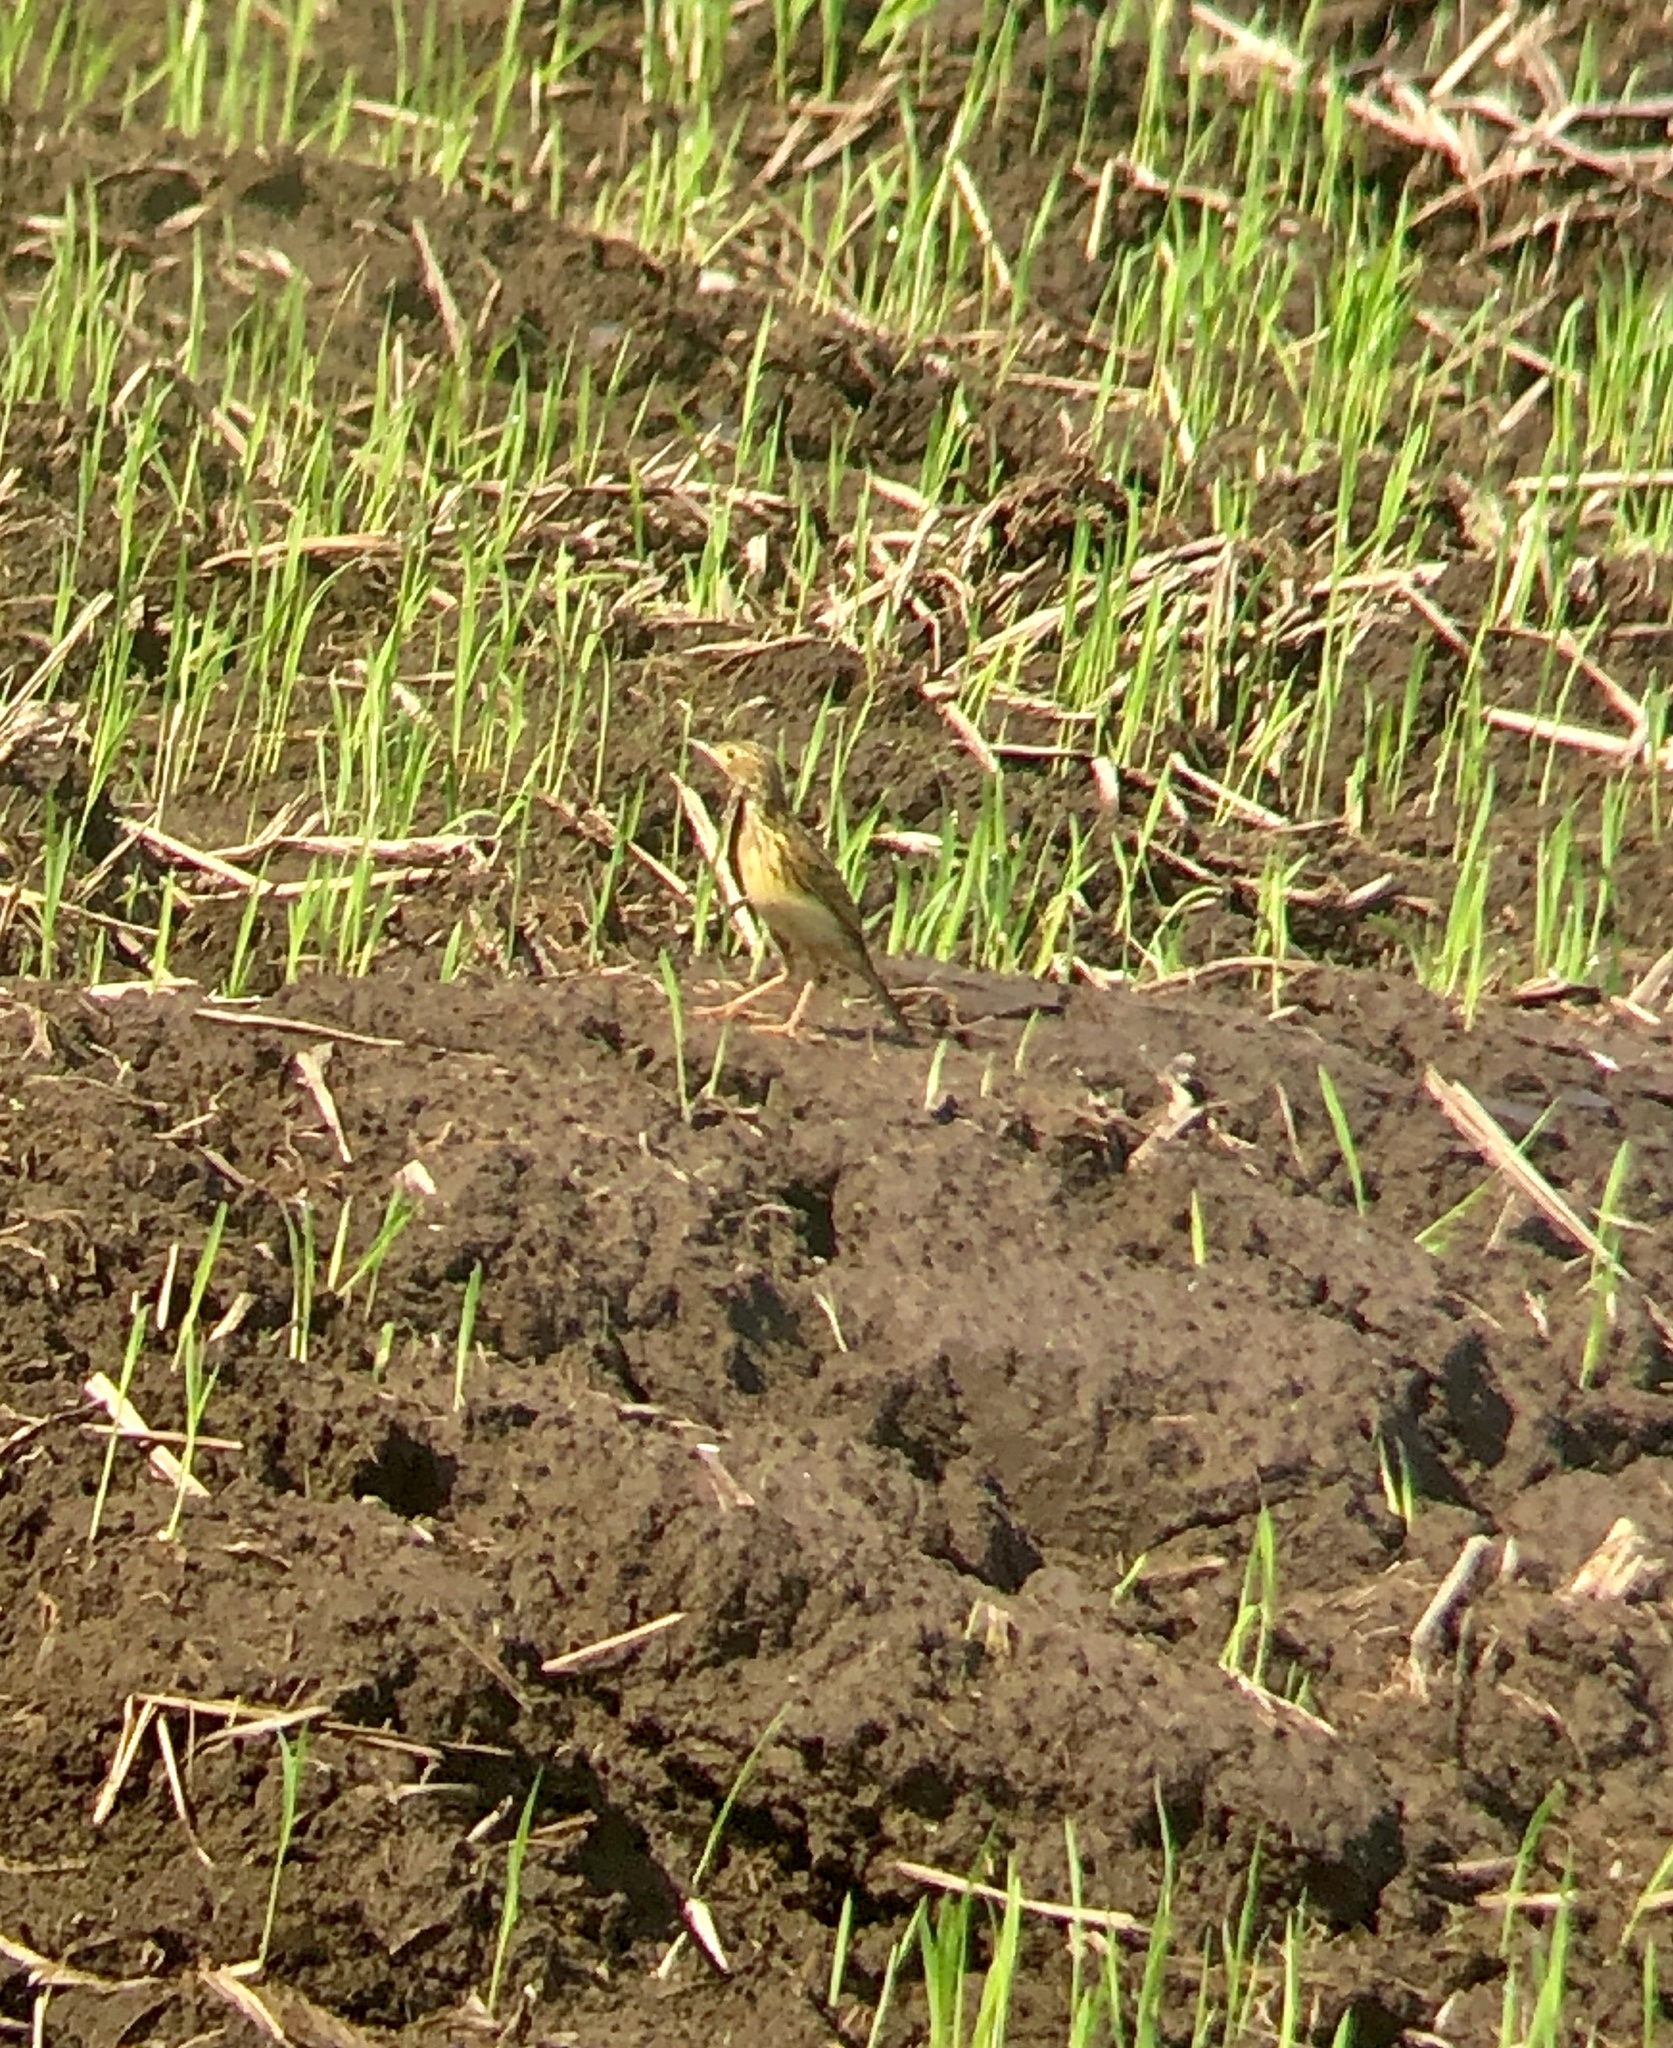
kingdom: Animalia
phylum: Chordata
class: Aves
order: Passeriformes
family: Motacillidae
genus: Anthus
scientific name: Anthus chii
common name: Yellowish pipit
